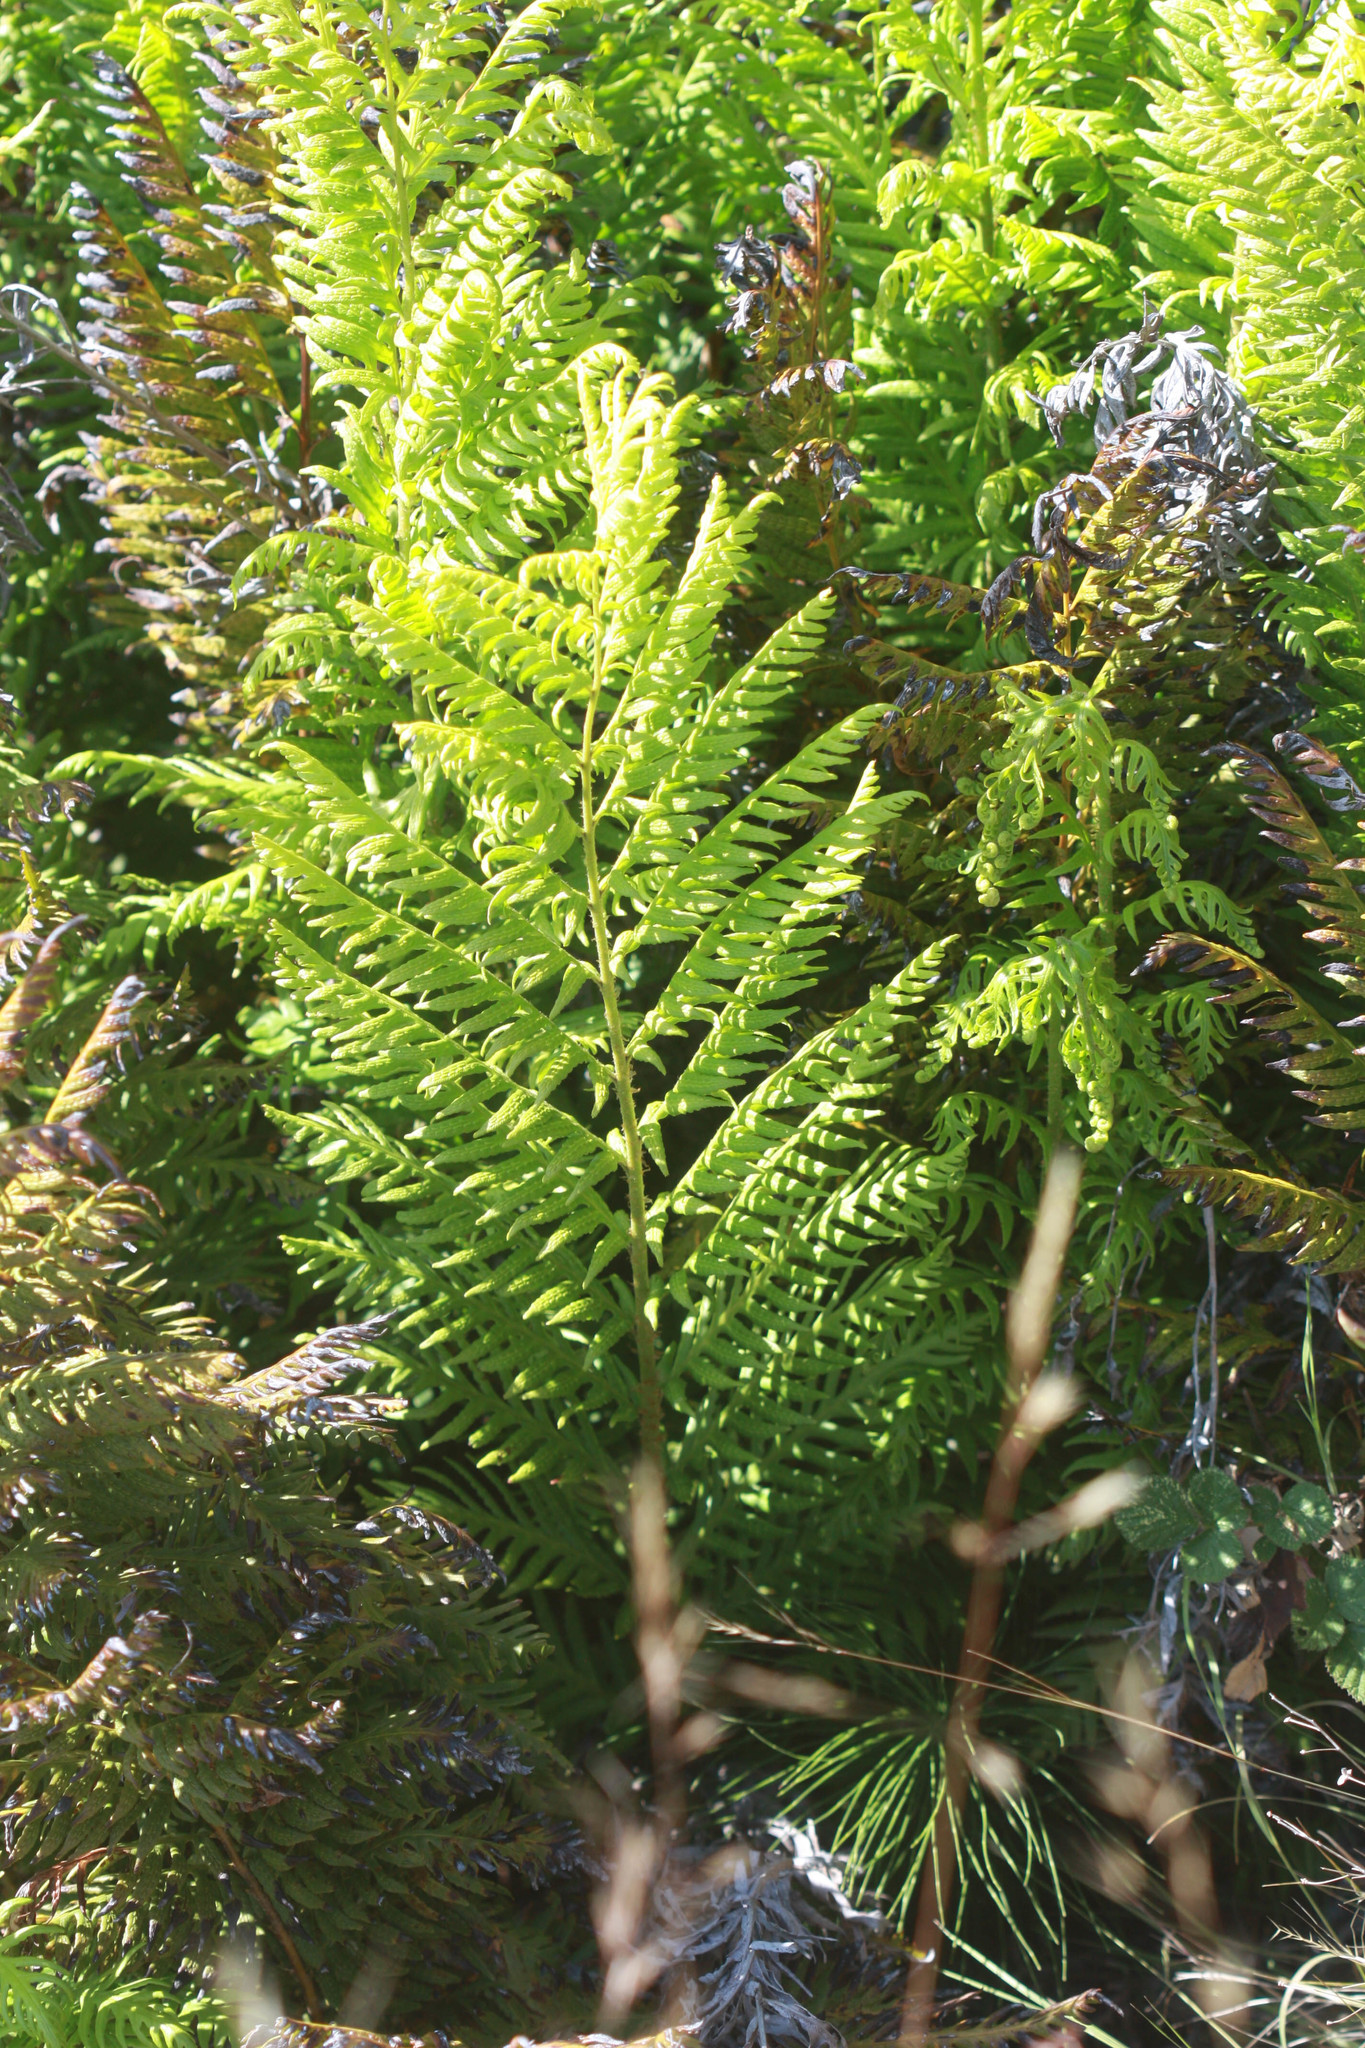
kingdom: Plantae
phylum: Tracheophyta
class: Polypodiopsida
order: Polypodiales
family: Blechnaceae
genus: Woodwardia
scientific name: Woodwardia fimbriata
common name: Giant chain fern
